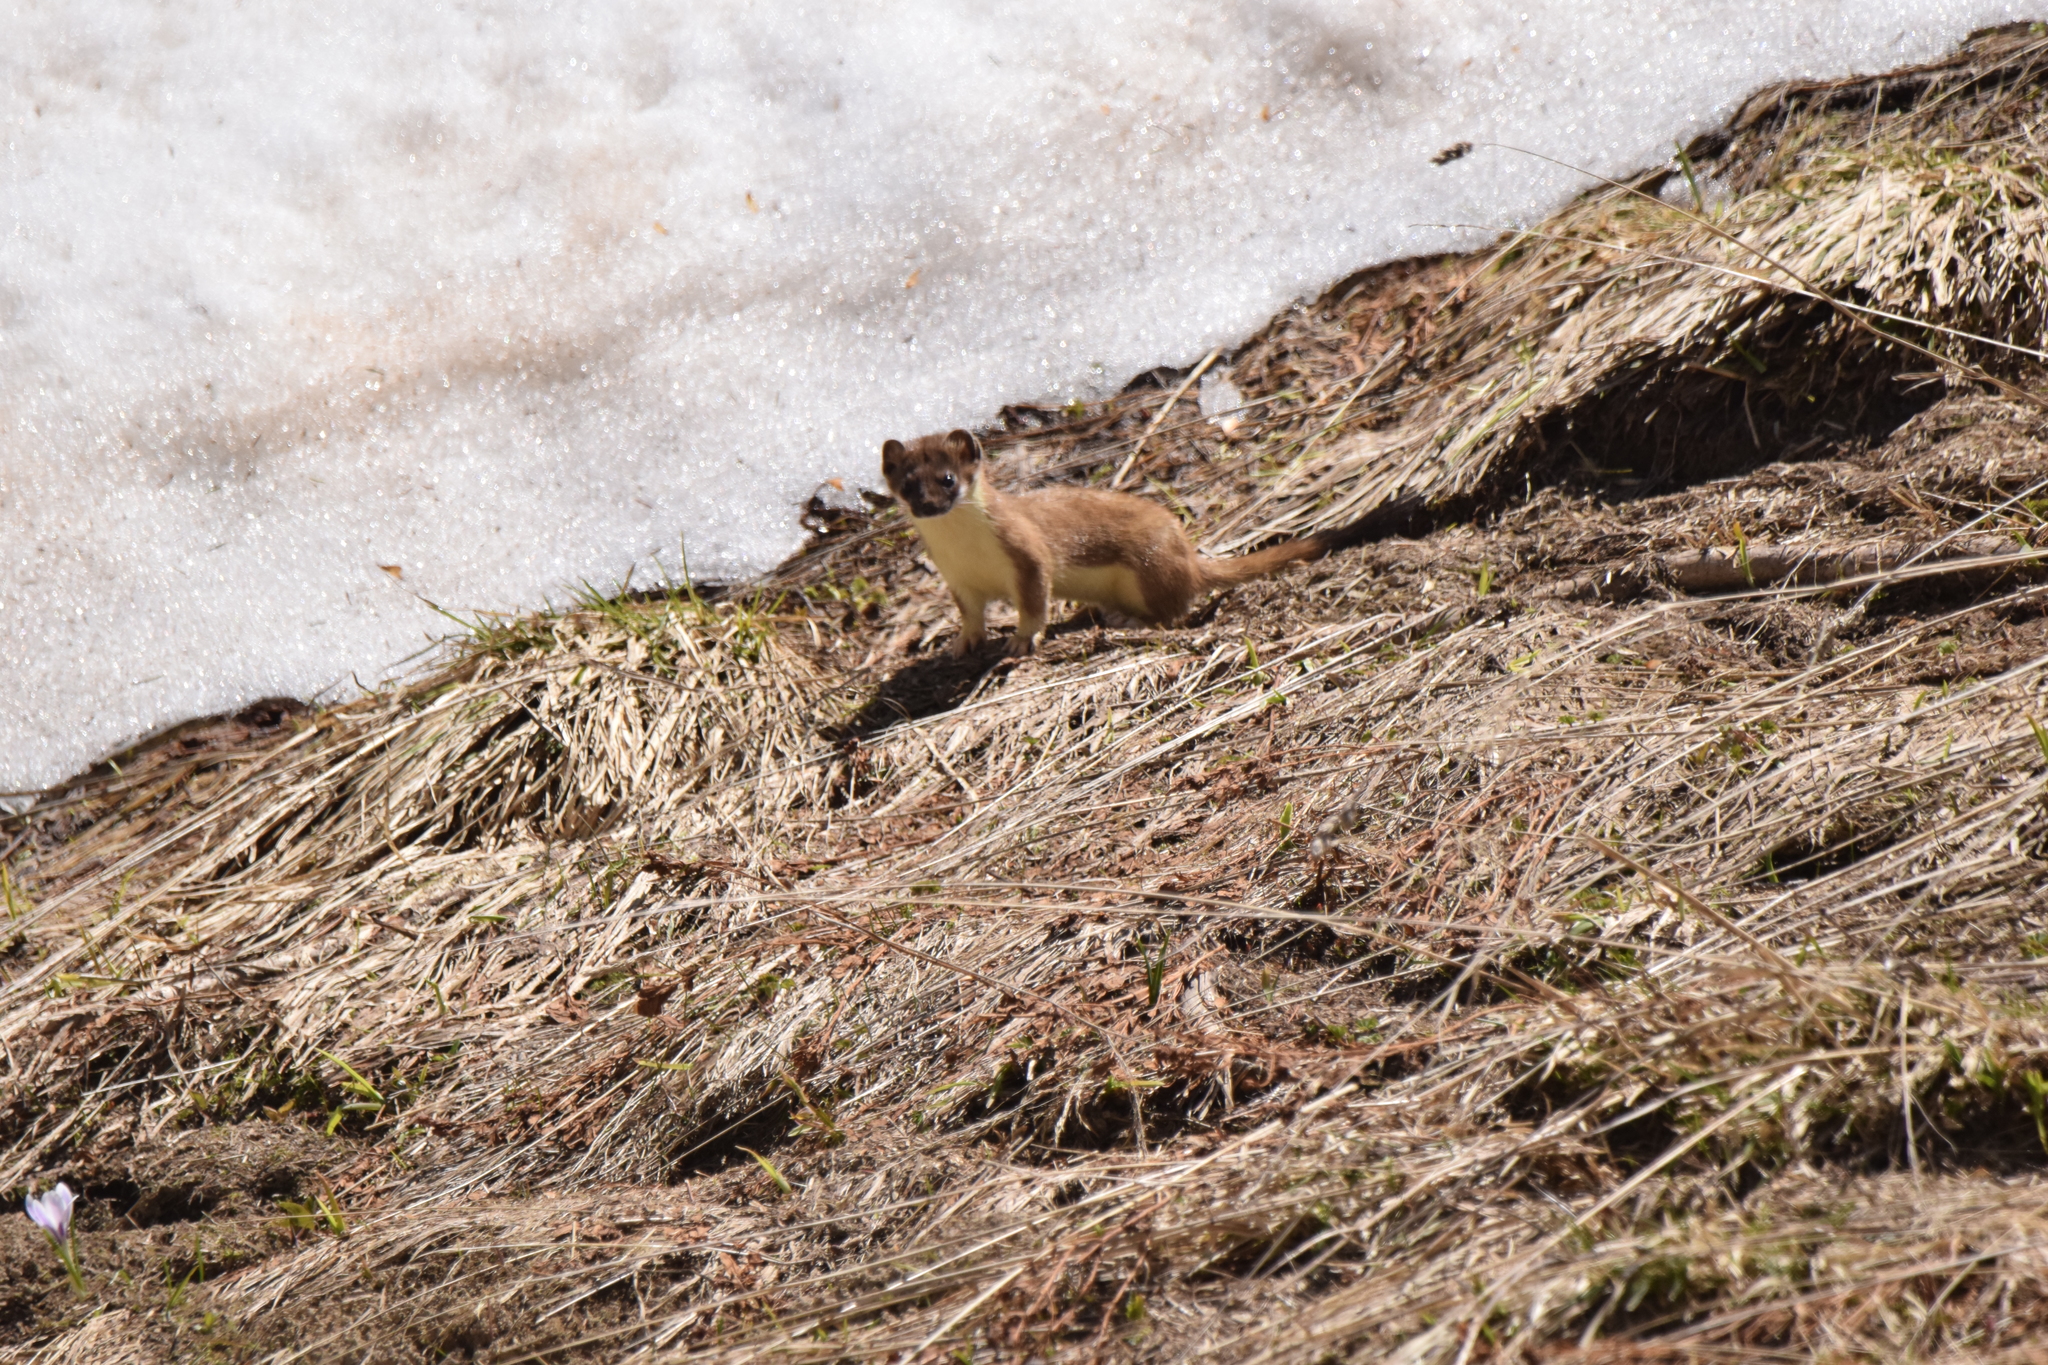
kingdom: Animalia
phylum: Chordata
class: Mammalia
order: Carnivora
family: Mustelidae
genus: Mustela
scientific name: Mustela erminea
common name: Stoat
